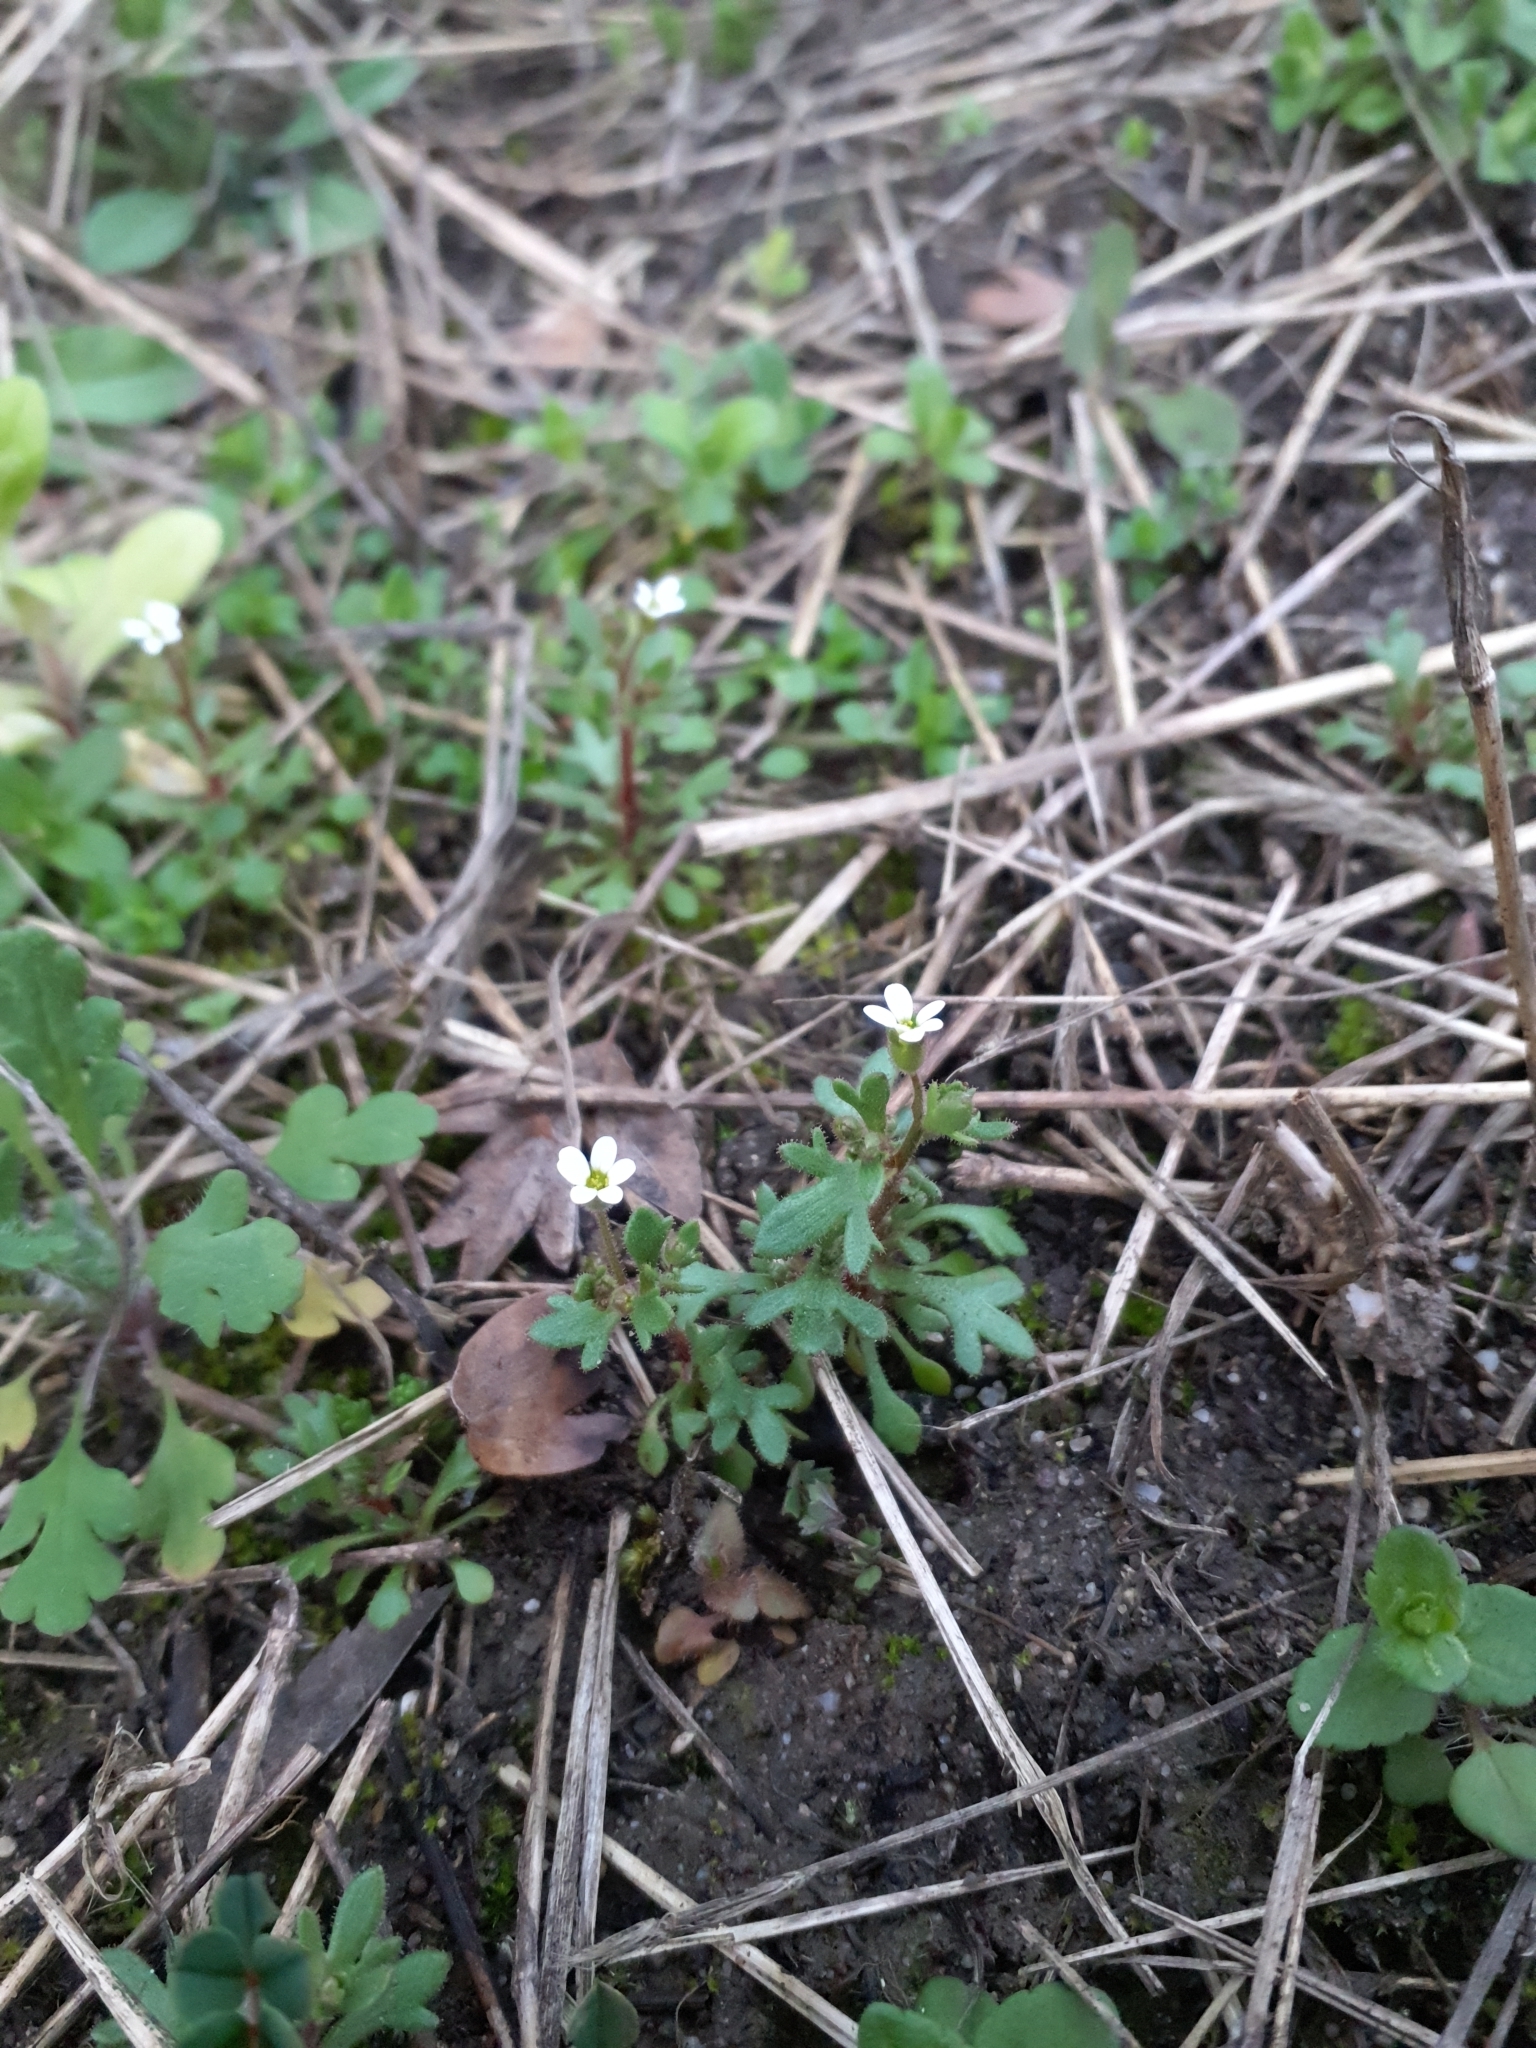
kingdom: Plantae
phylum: Tracheophyta
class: Magnoliopsida
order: Saxifragales
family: Saxifragaceae
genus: Saxifraga
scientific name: Saxifraga tridactylites
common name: Rue-leaved saxifrage
